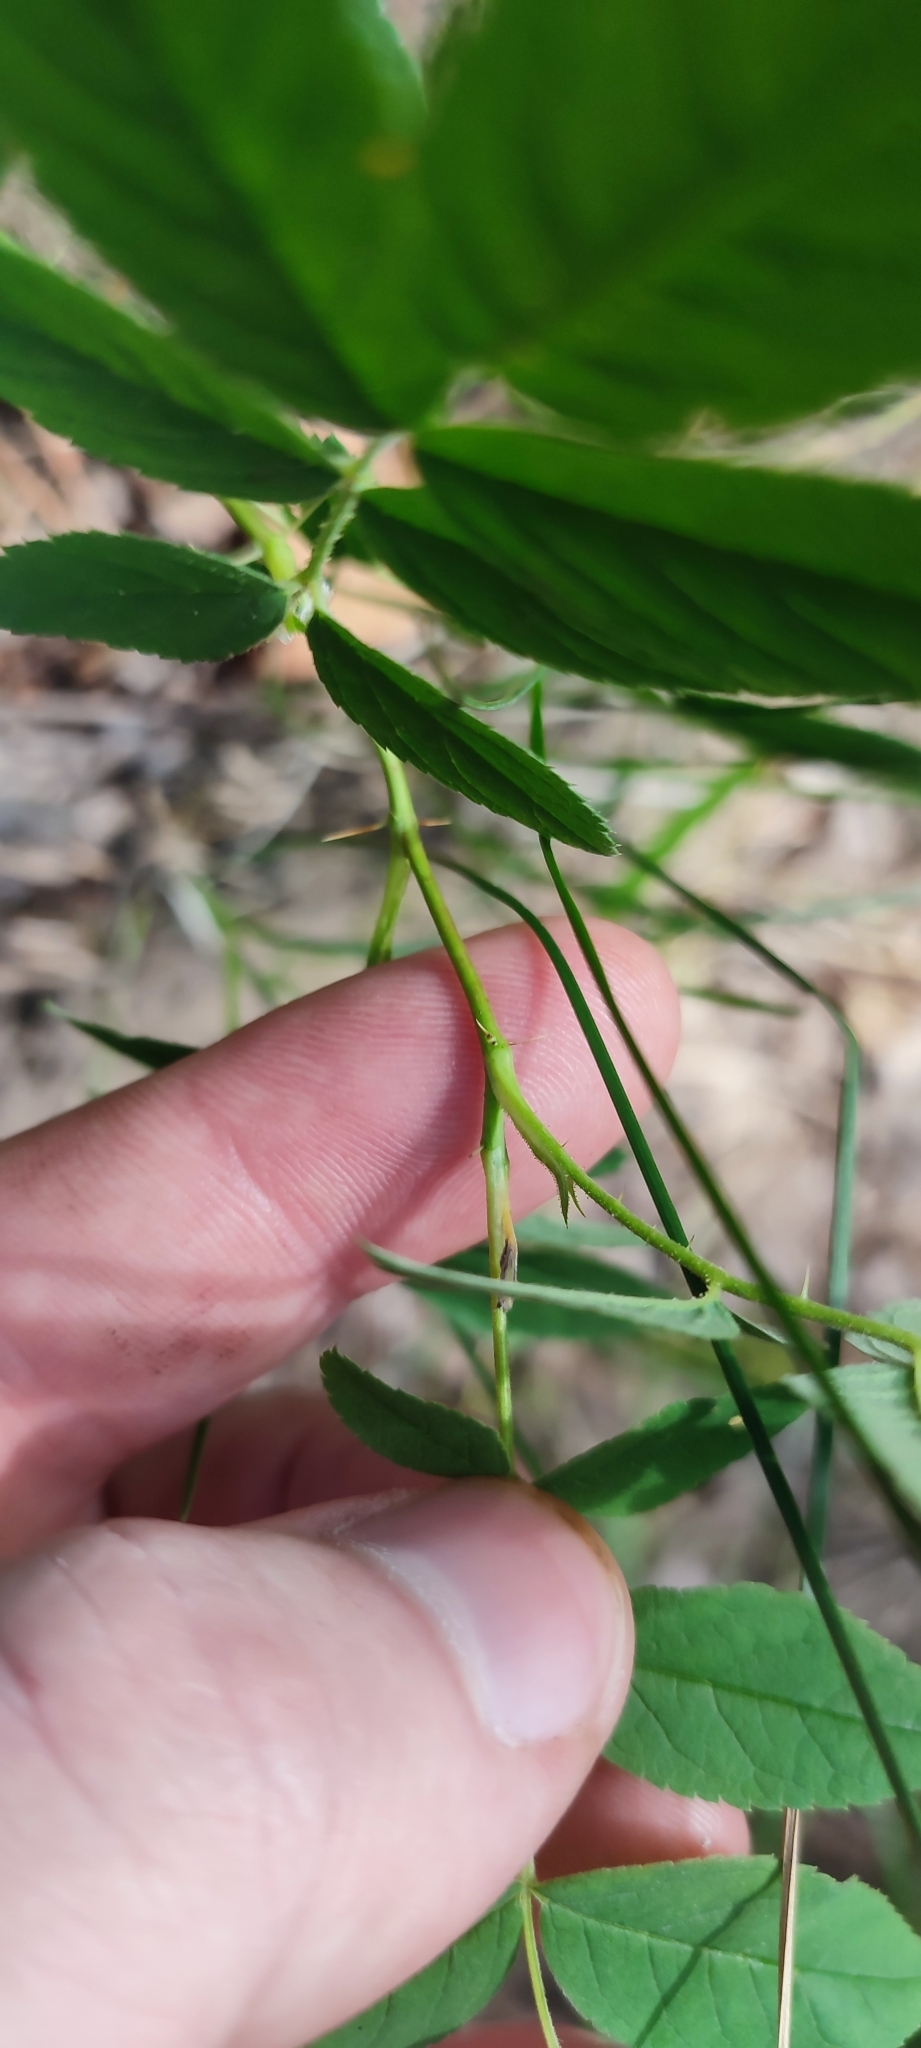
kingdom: Plantae
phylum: Tracheophyta
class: Magnoliopsida
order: Rosales
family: Rosaceae
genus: Rosa
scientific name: Rosa majalis
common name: Cinnamon rose
